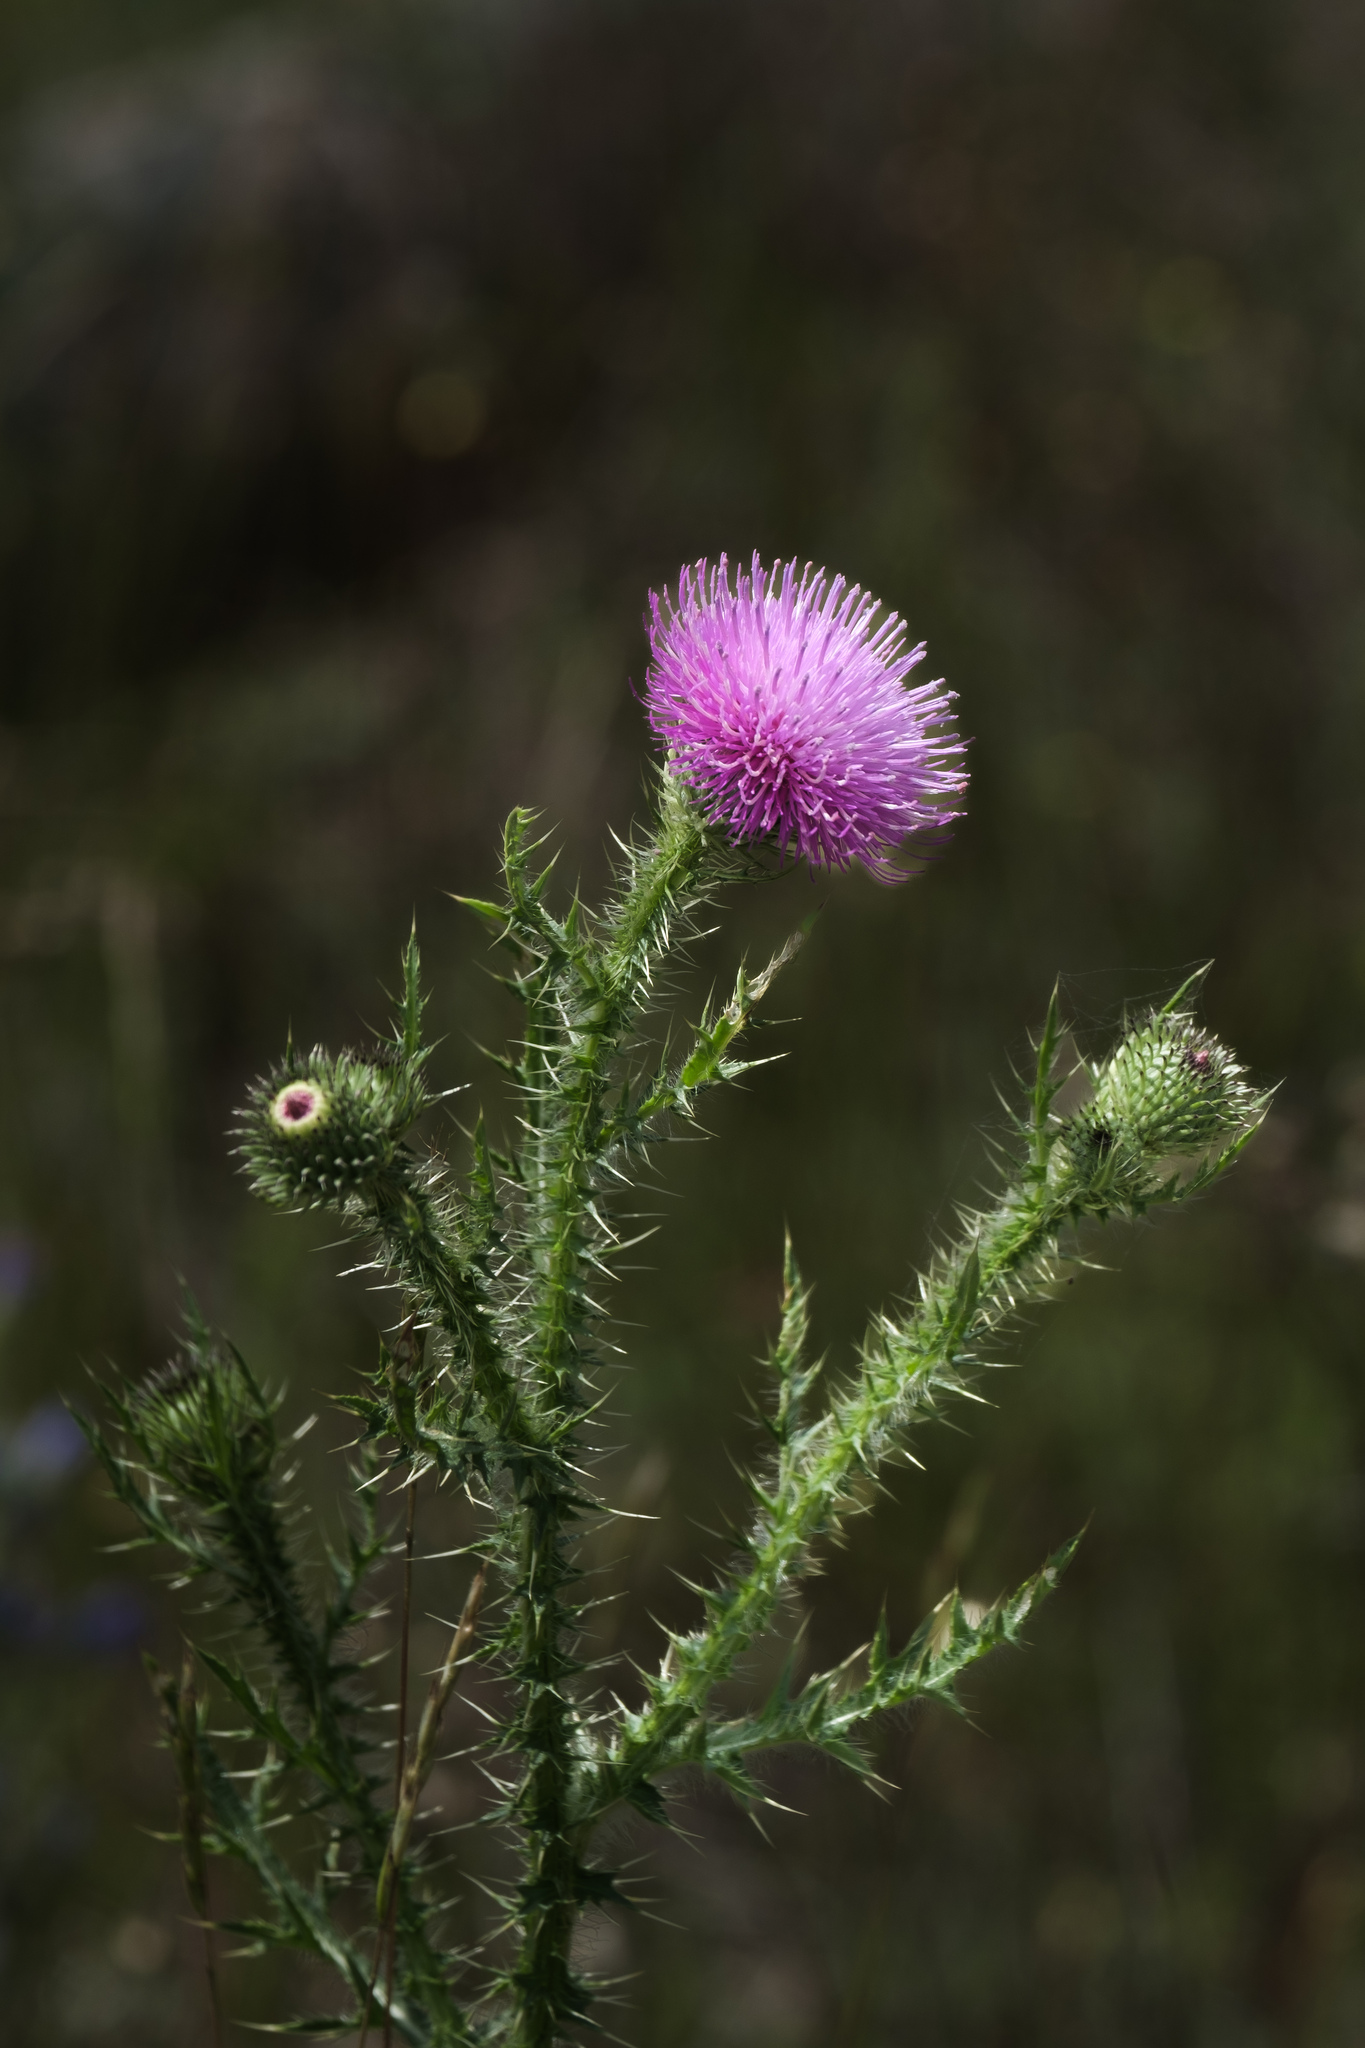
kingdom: Plantae
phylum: Tracheophyta
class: Magnoliopsida
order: Asterales
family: Asteraceae
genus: Carduus
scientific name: Carduus acanthoides
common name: Plumeless thistle
